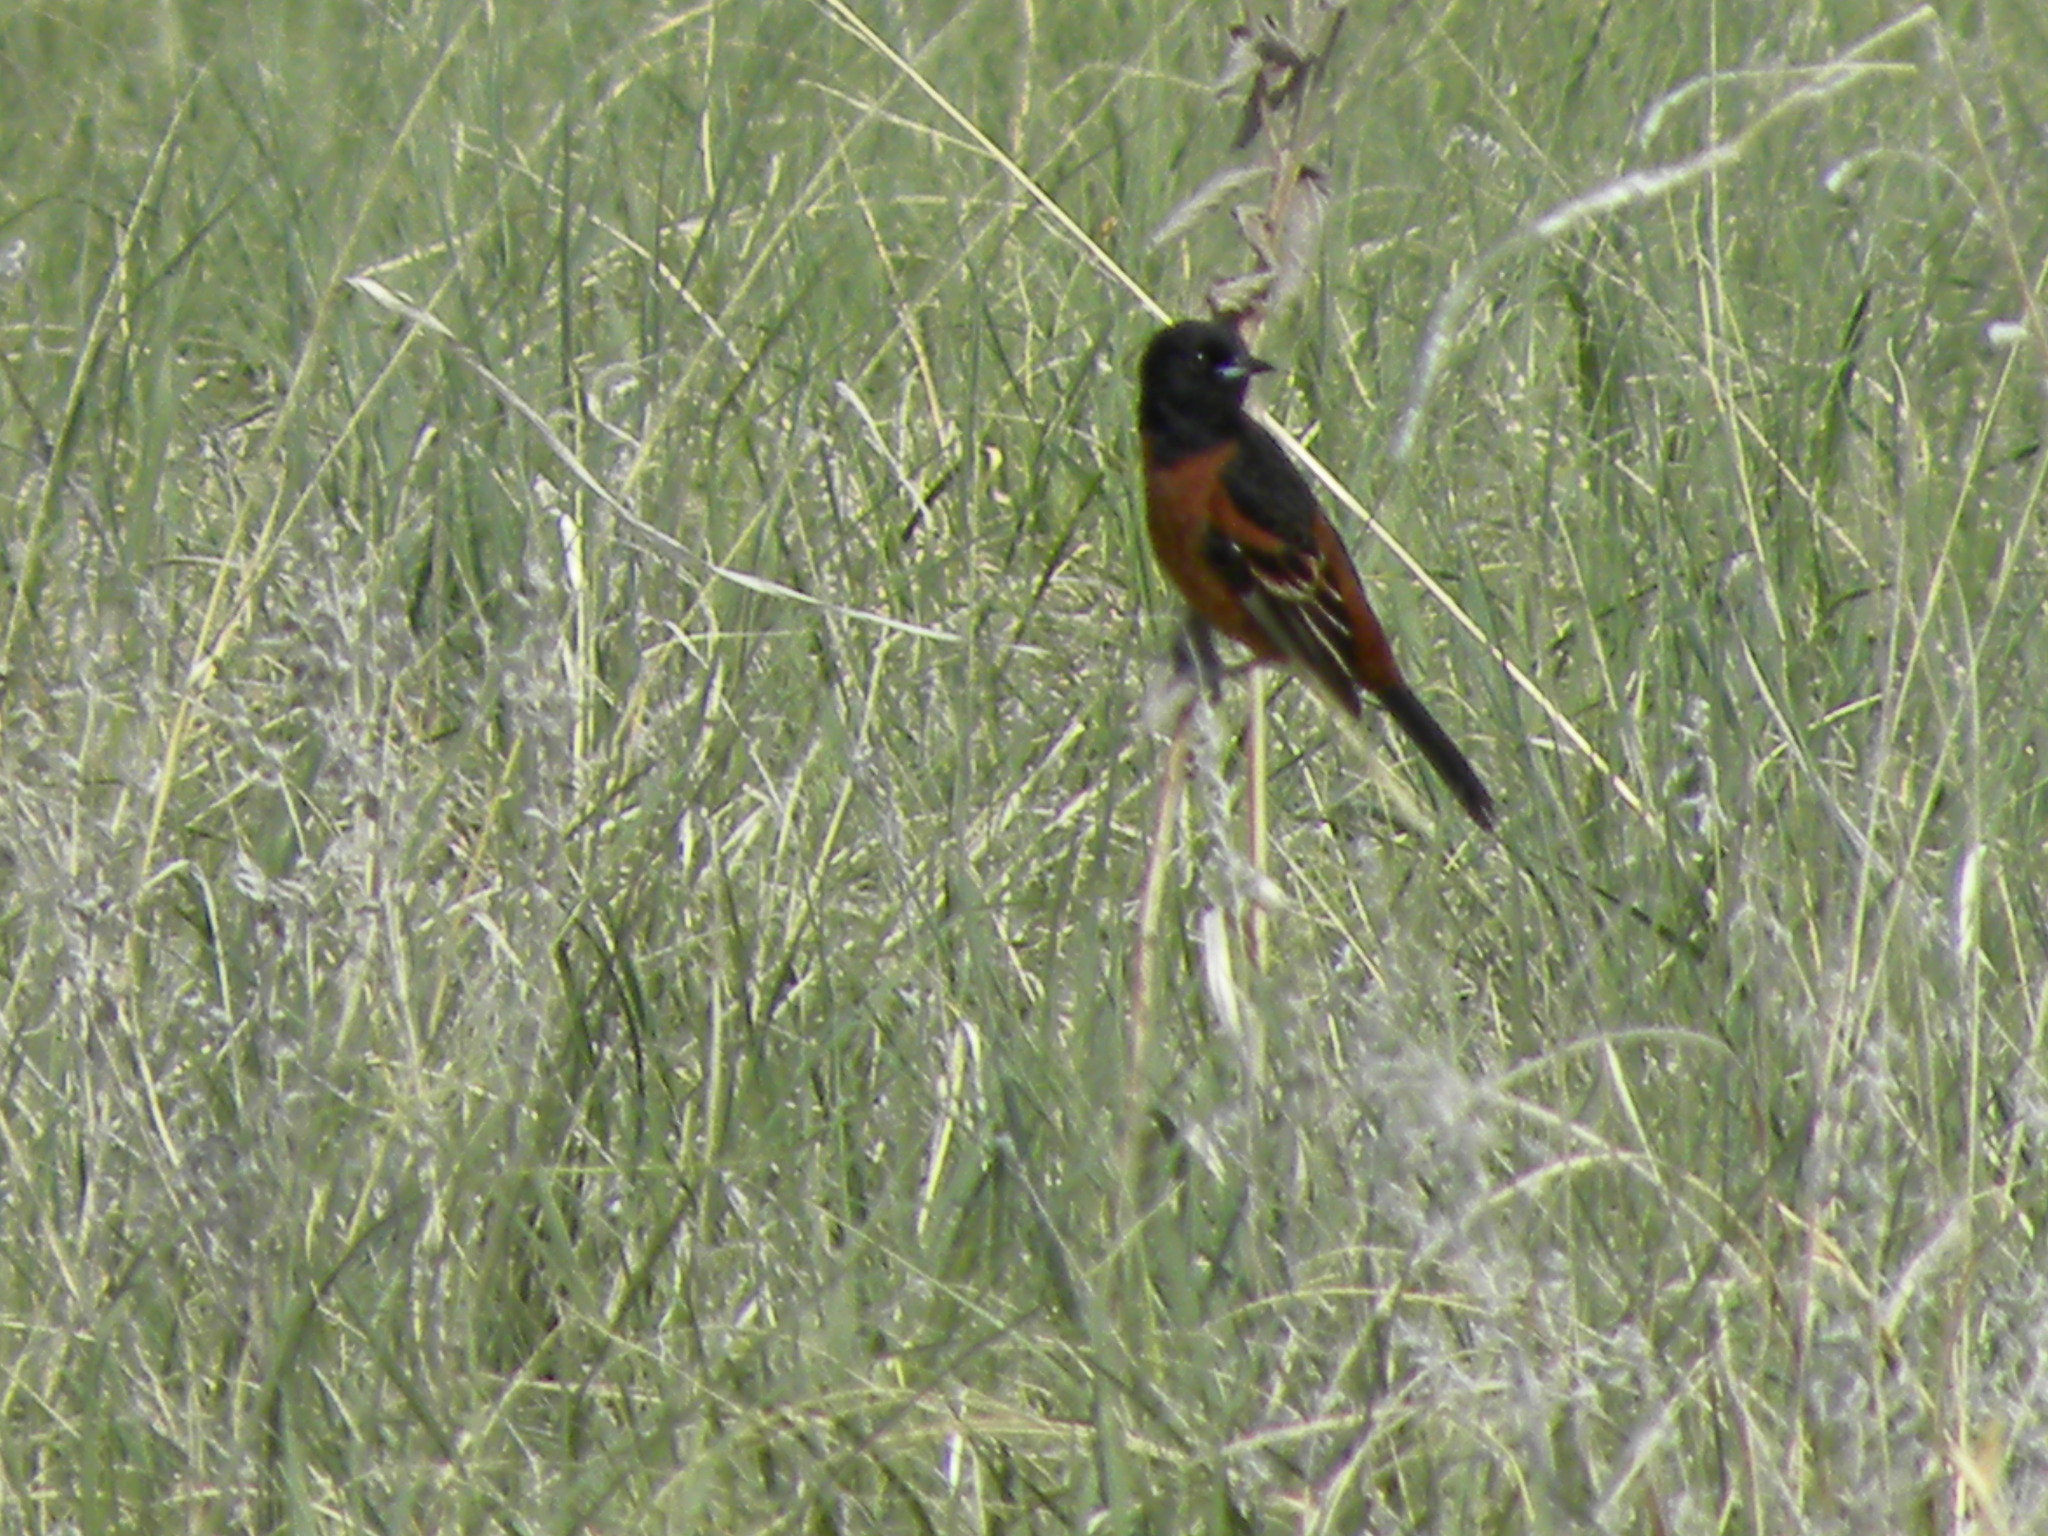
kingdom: Animalia
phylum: Chordata
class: Aves
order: Passeriformes
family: Icteridae
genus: Icterus
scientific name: Icterus spurius
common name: Orchard oriole
